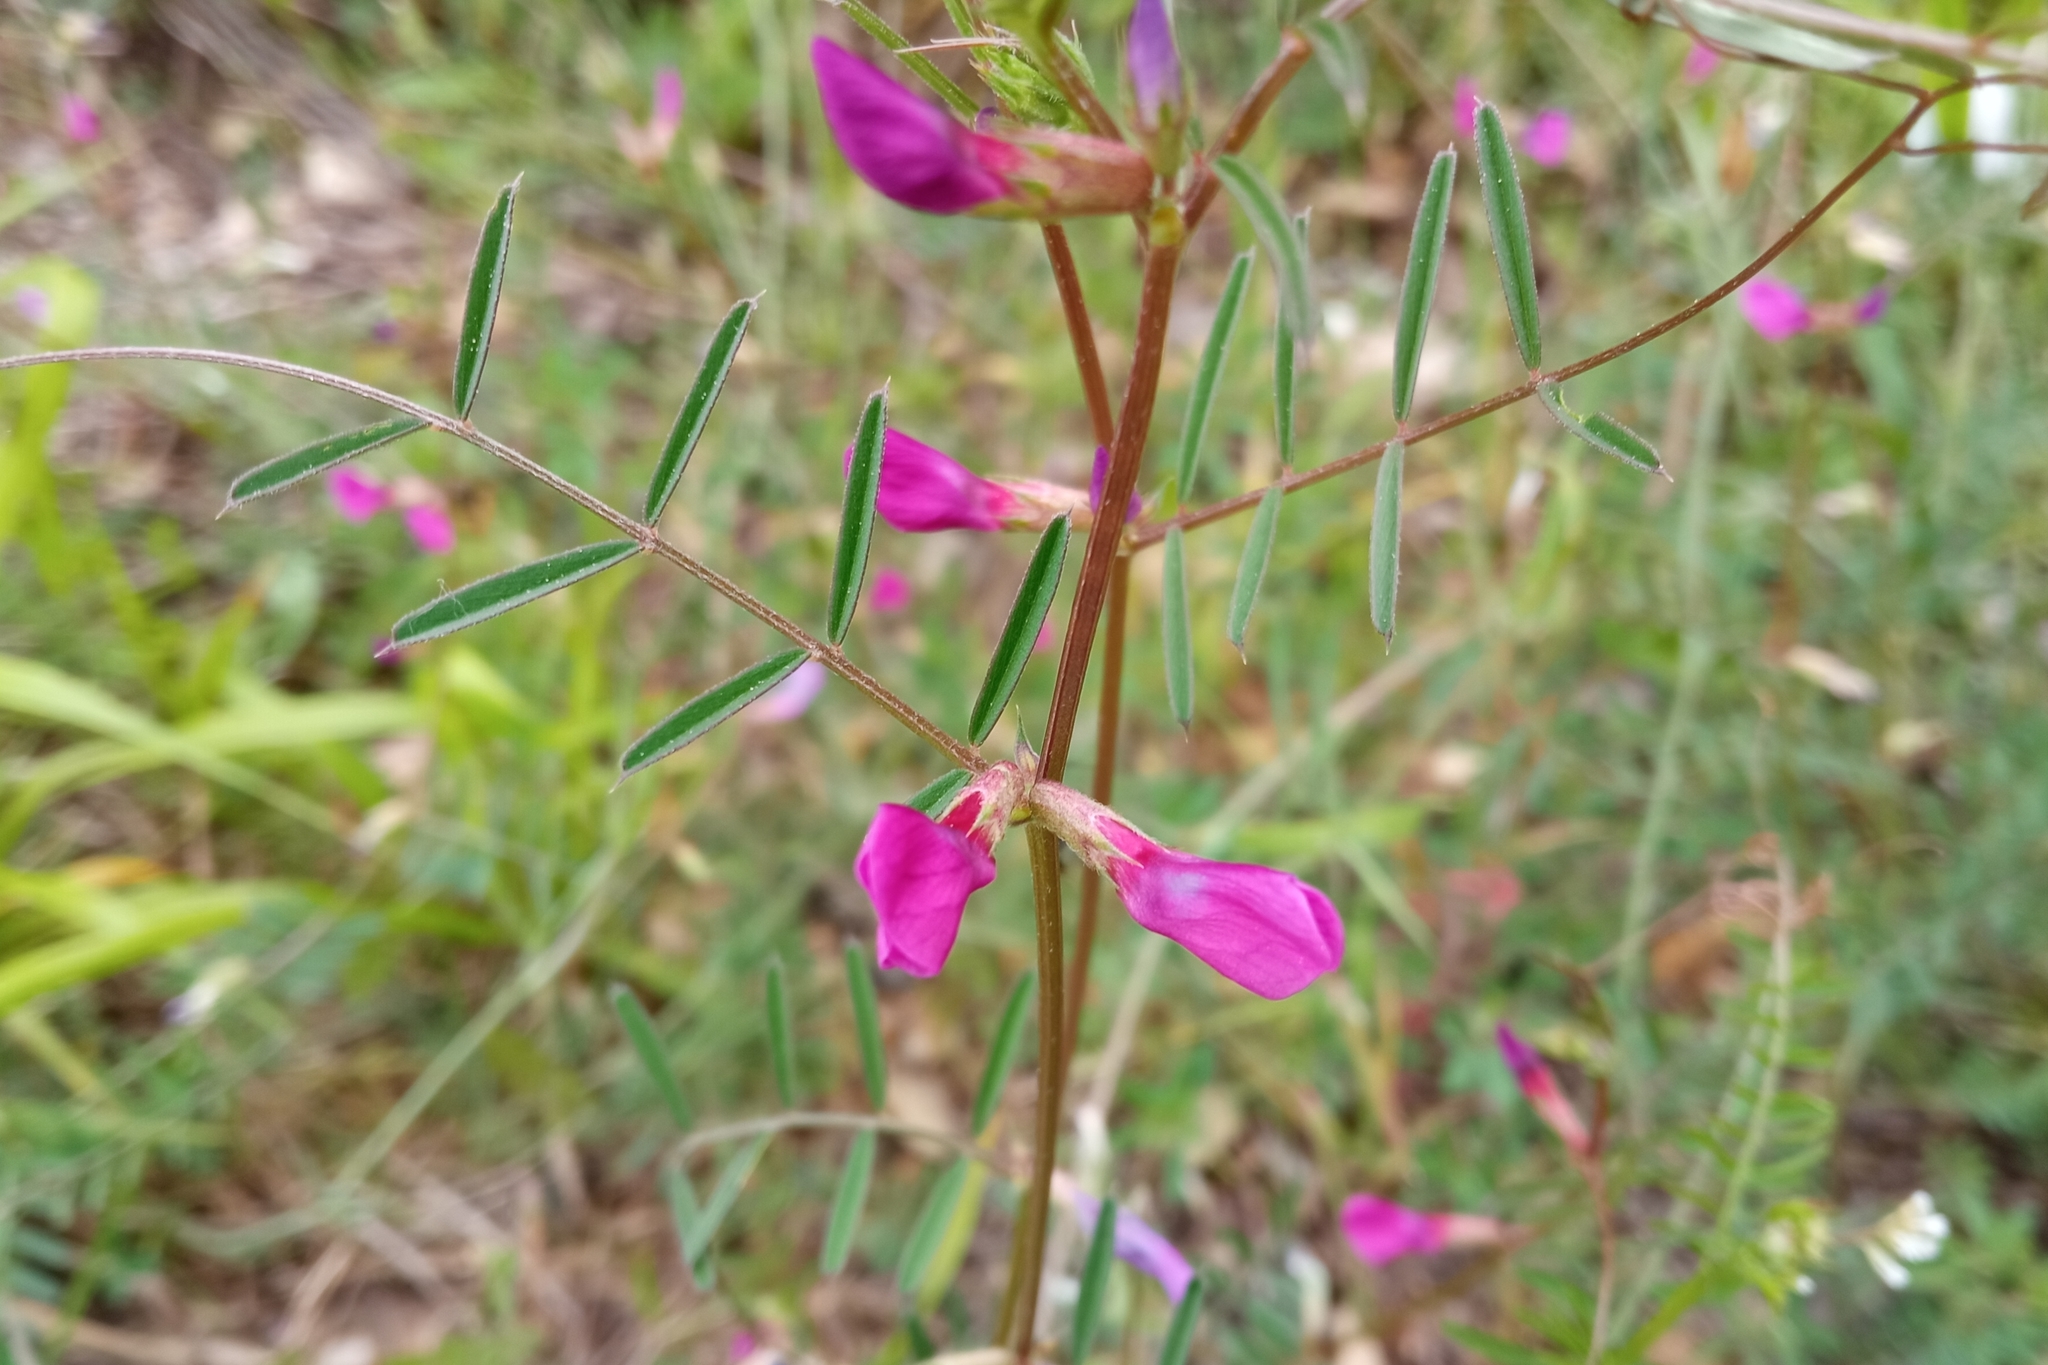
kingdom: Plantae
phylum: Tracheophyta
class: Magnoliopsida
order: Fabales
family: Fabaceae
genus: Vicia
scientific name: Vicia sativa
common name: Garden vetch
